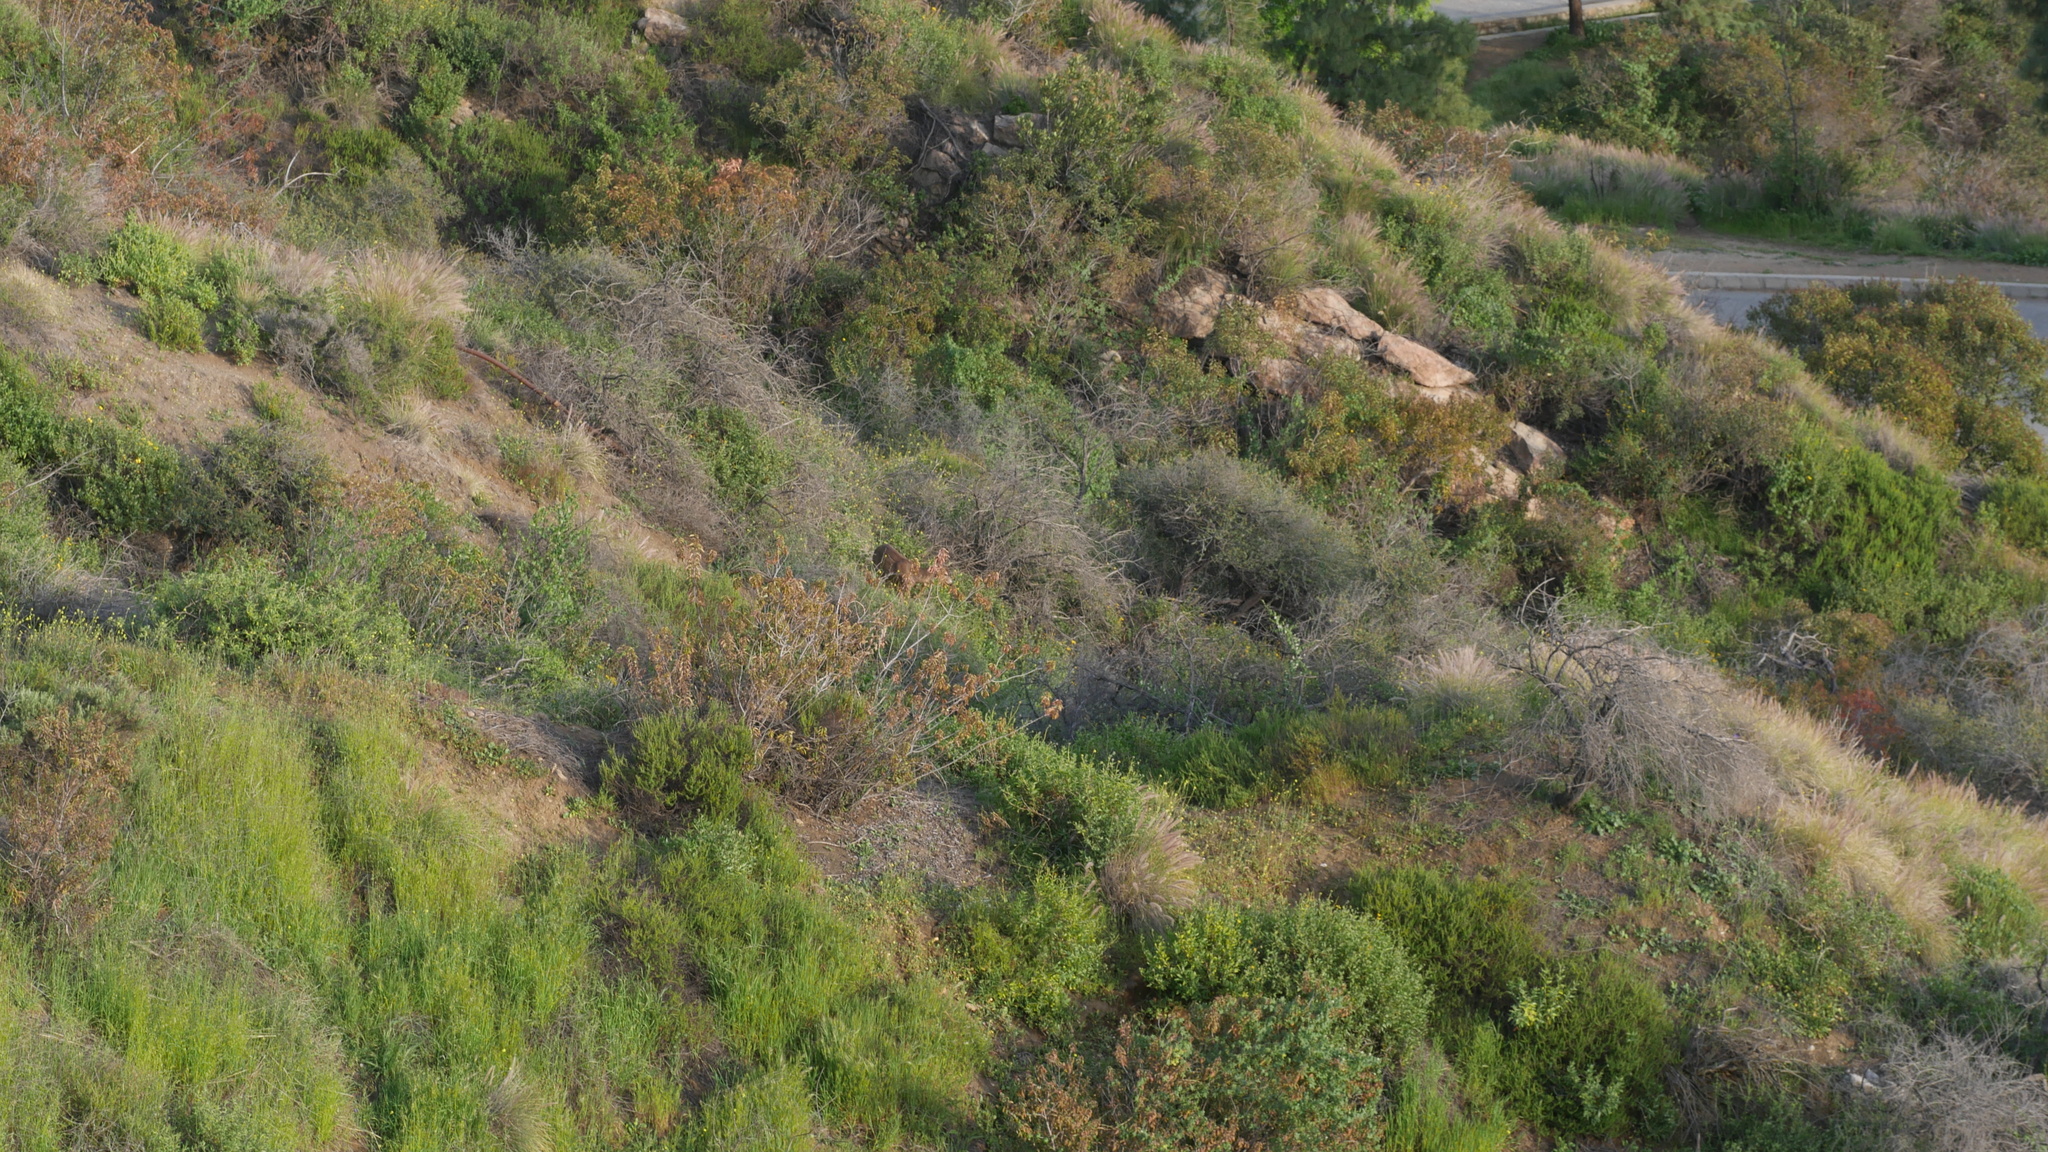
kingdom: Animalia
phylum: Chordata
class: Mammalia
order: Artiodactyla
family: Cervidae
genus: Odocoileus
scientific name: Odocoileus hemionus
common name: Mule deer
